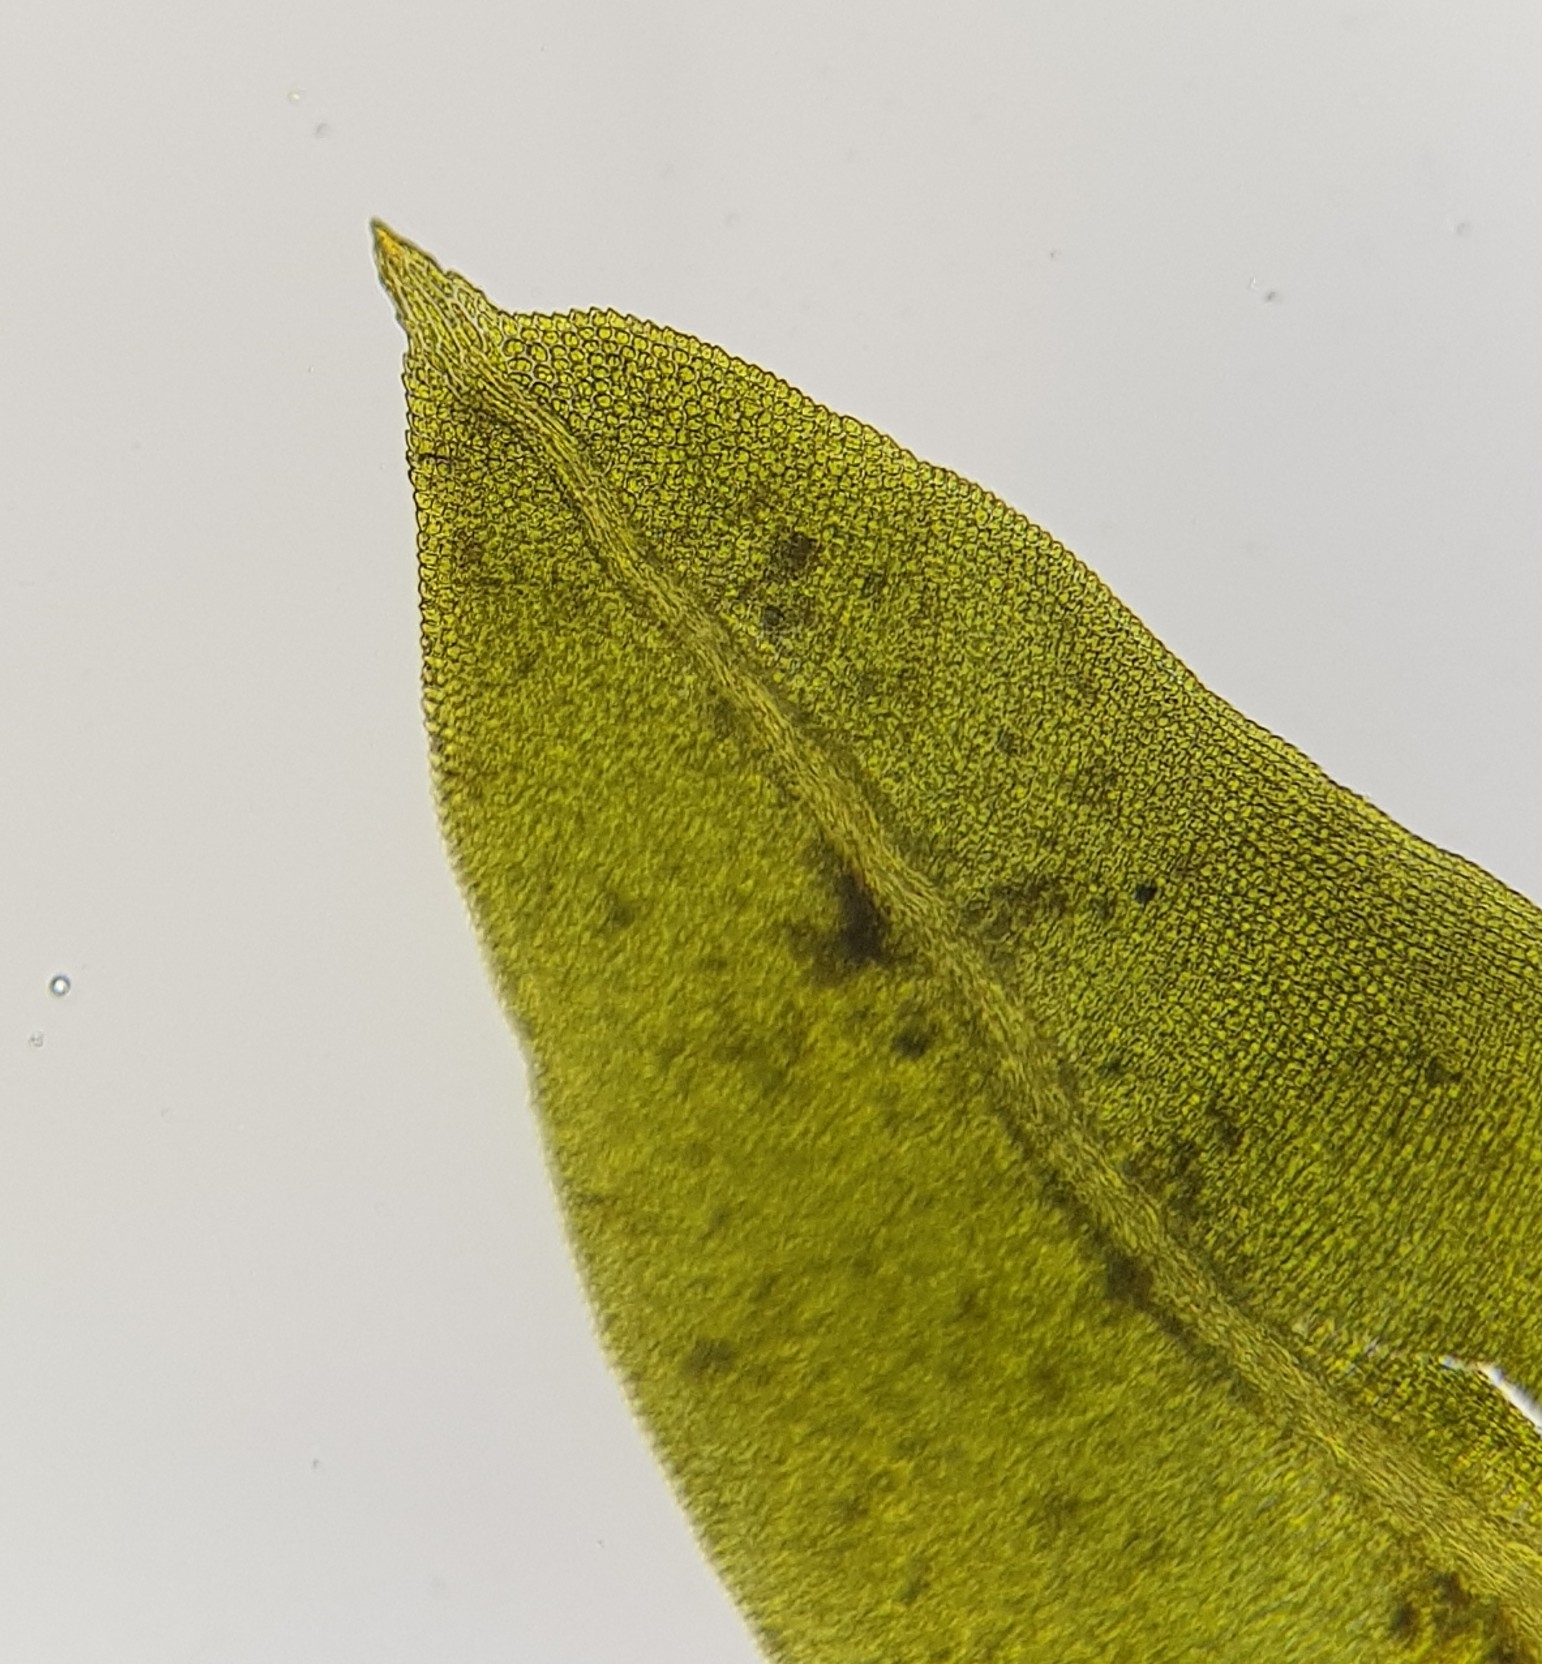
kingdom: Plantae
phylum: Bryophyta
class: Bryopsida
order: Dicranales
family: Fissidentaceae
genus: Fissidens
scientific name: Fissidens taxifolius
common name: Yew-leaved pocket moss
